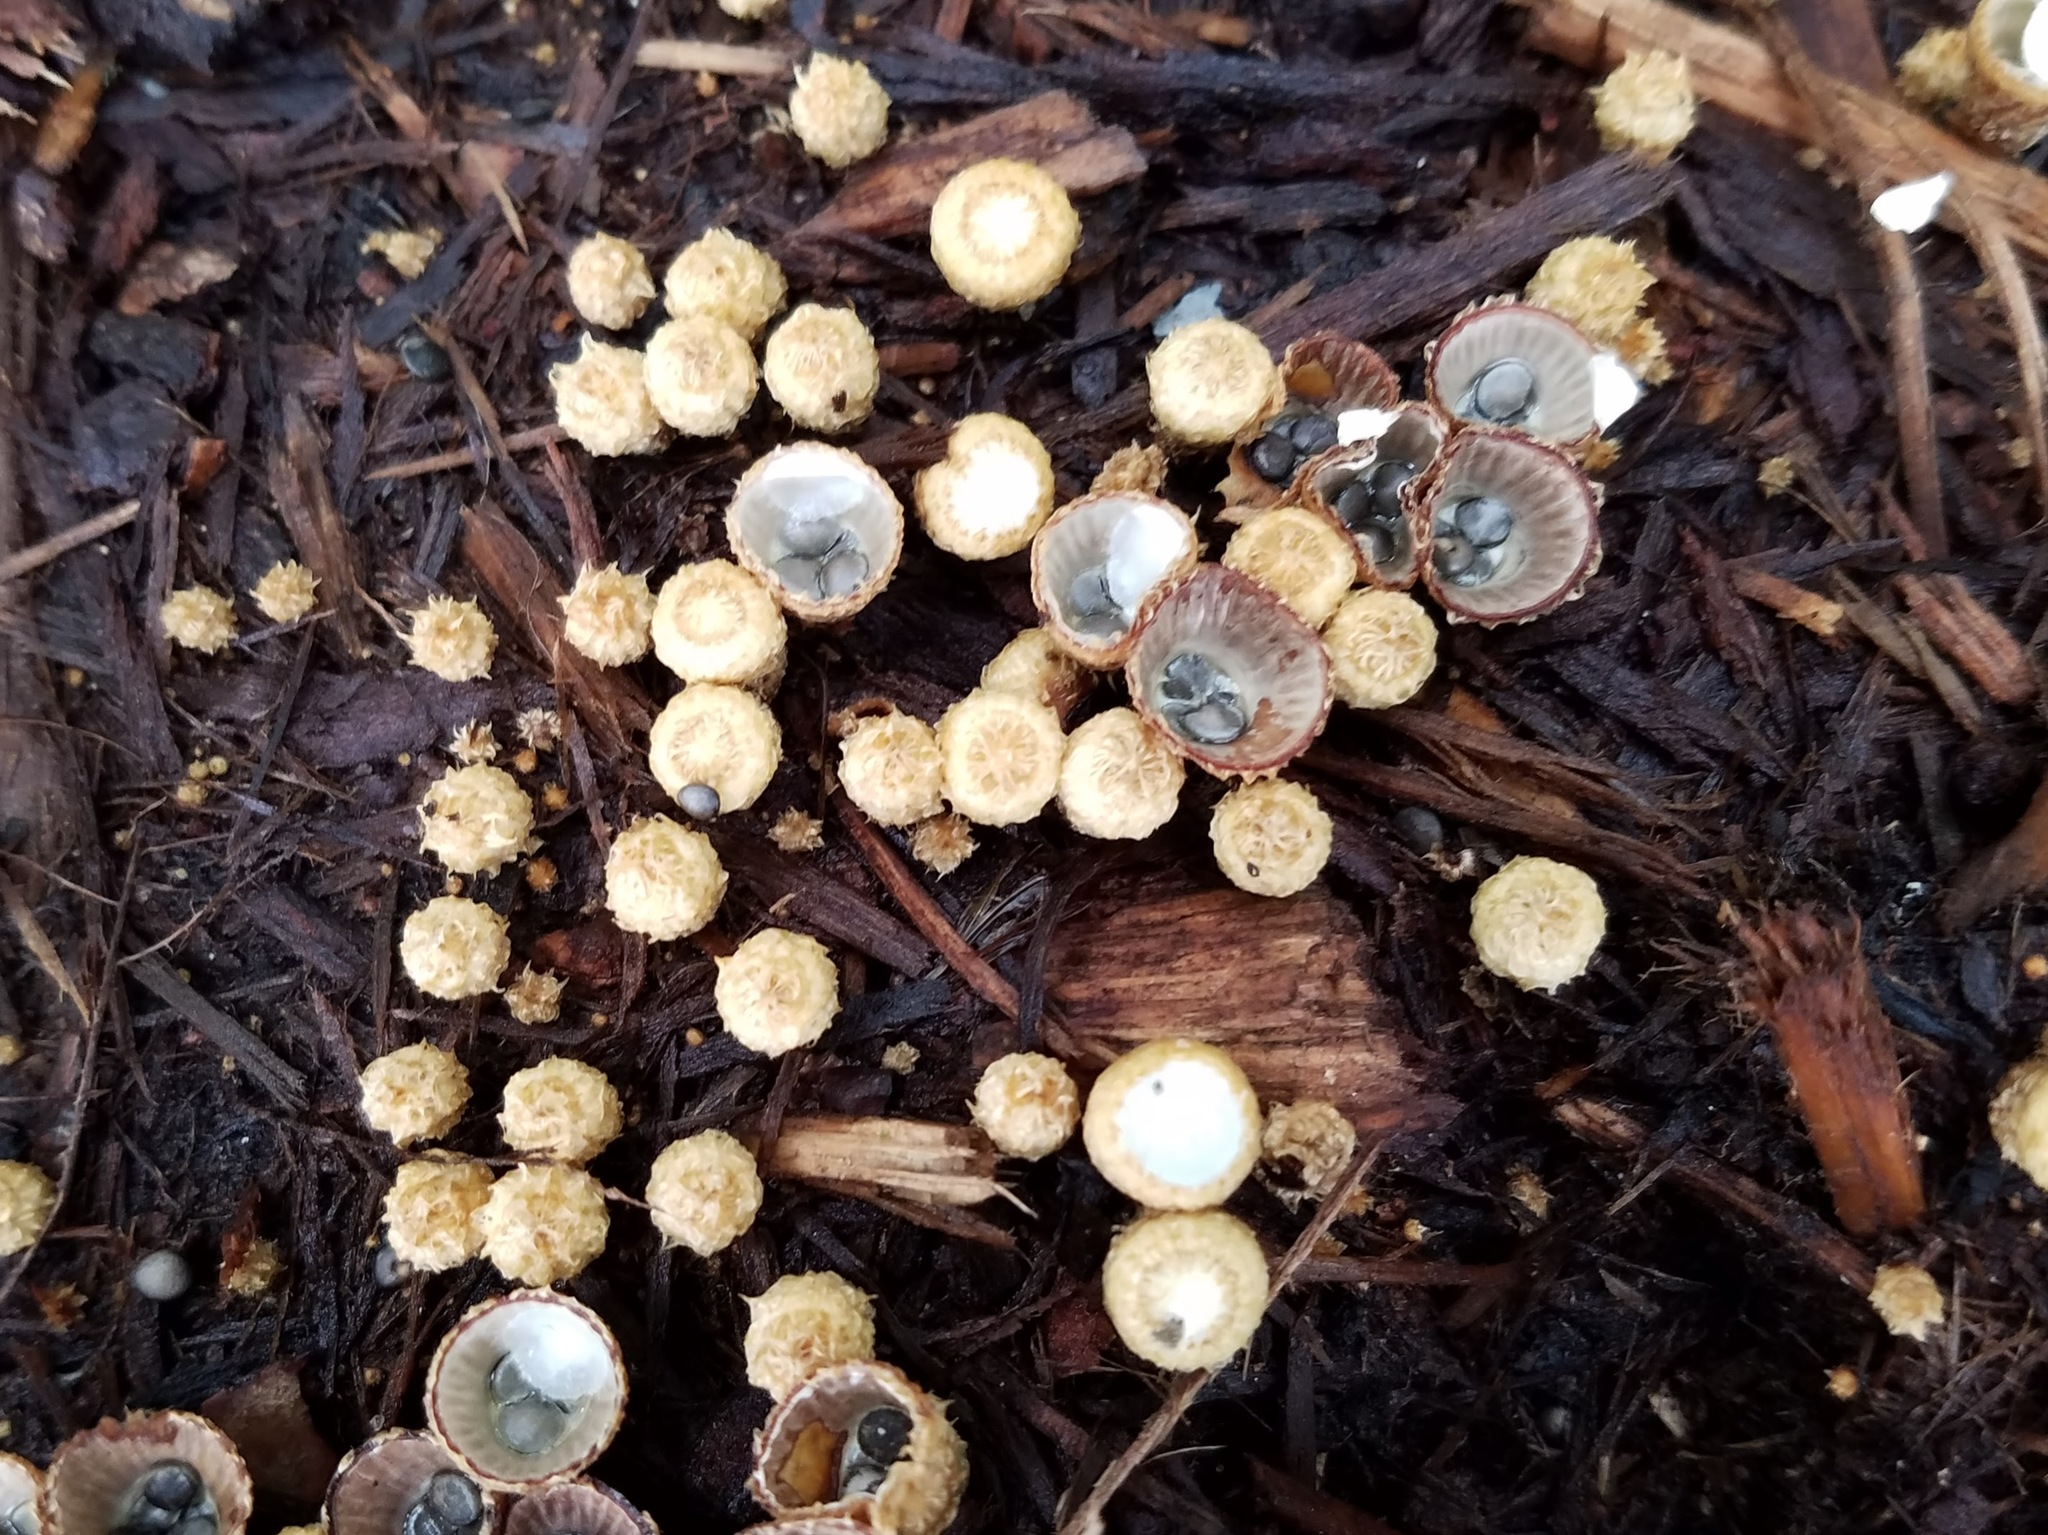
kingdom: Fungi
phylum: Basidiomycota
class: Agaricomycetes
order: Agaricales
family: Agaricaceae
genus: Cyathus
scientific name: Cyathus striatus
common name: Fluted bird's nest
